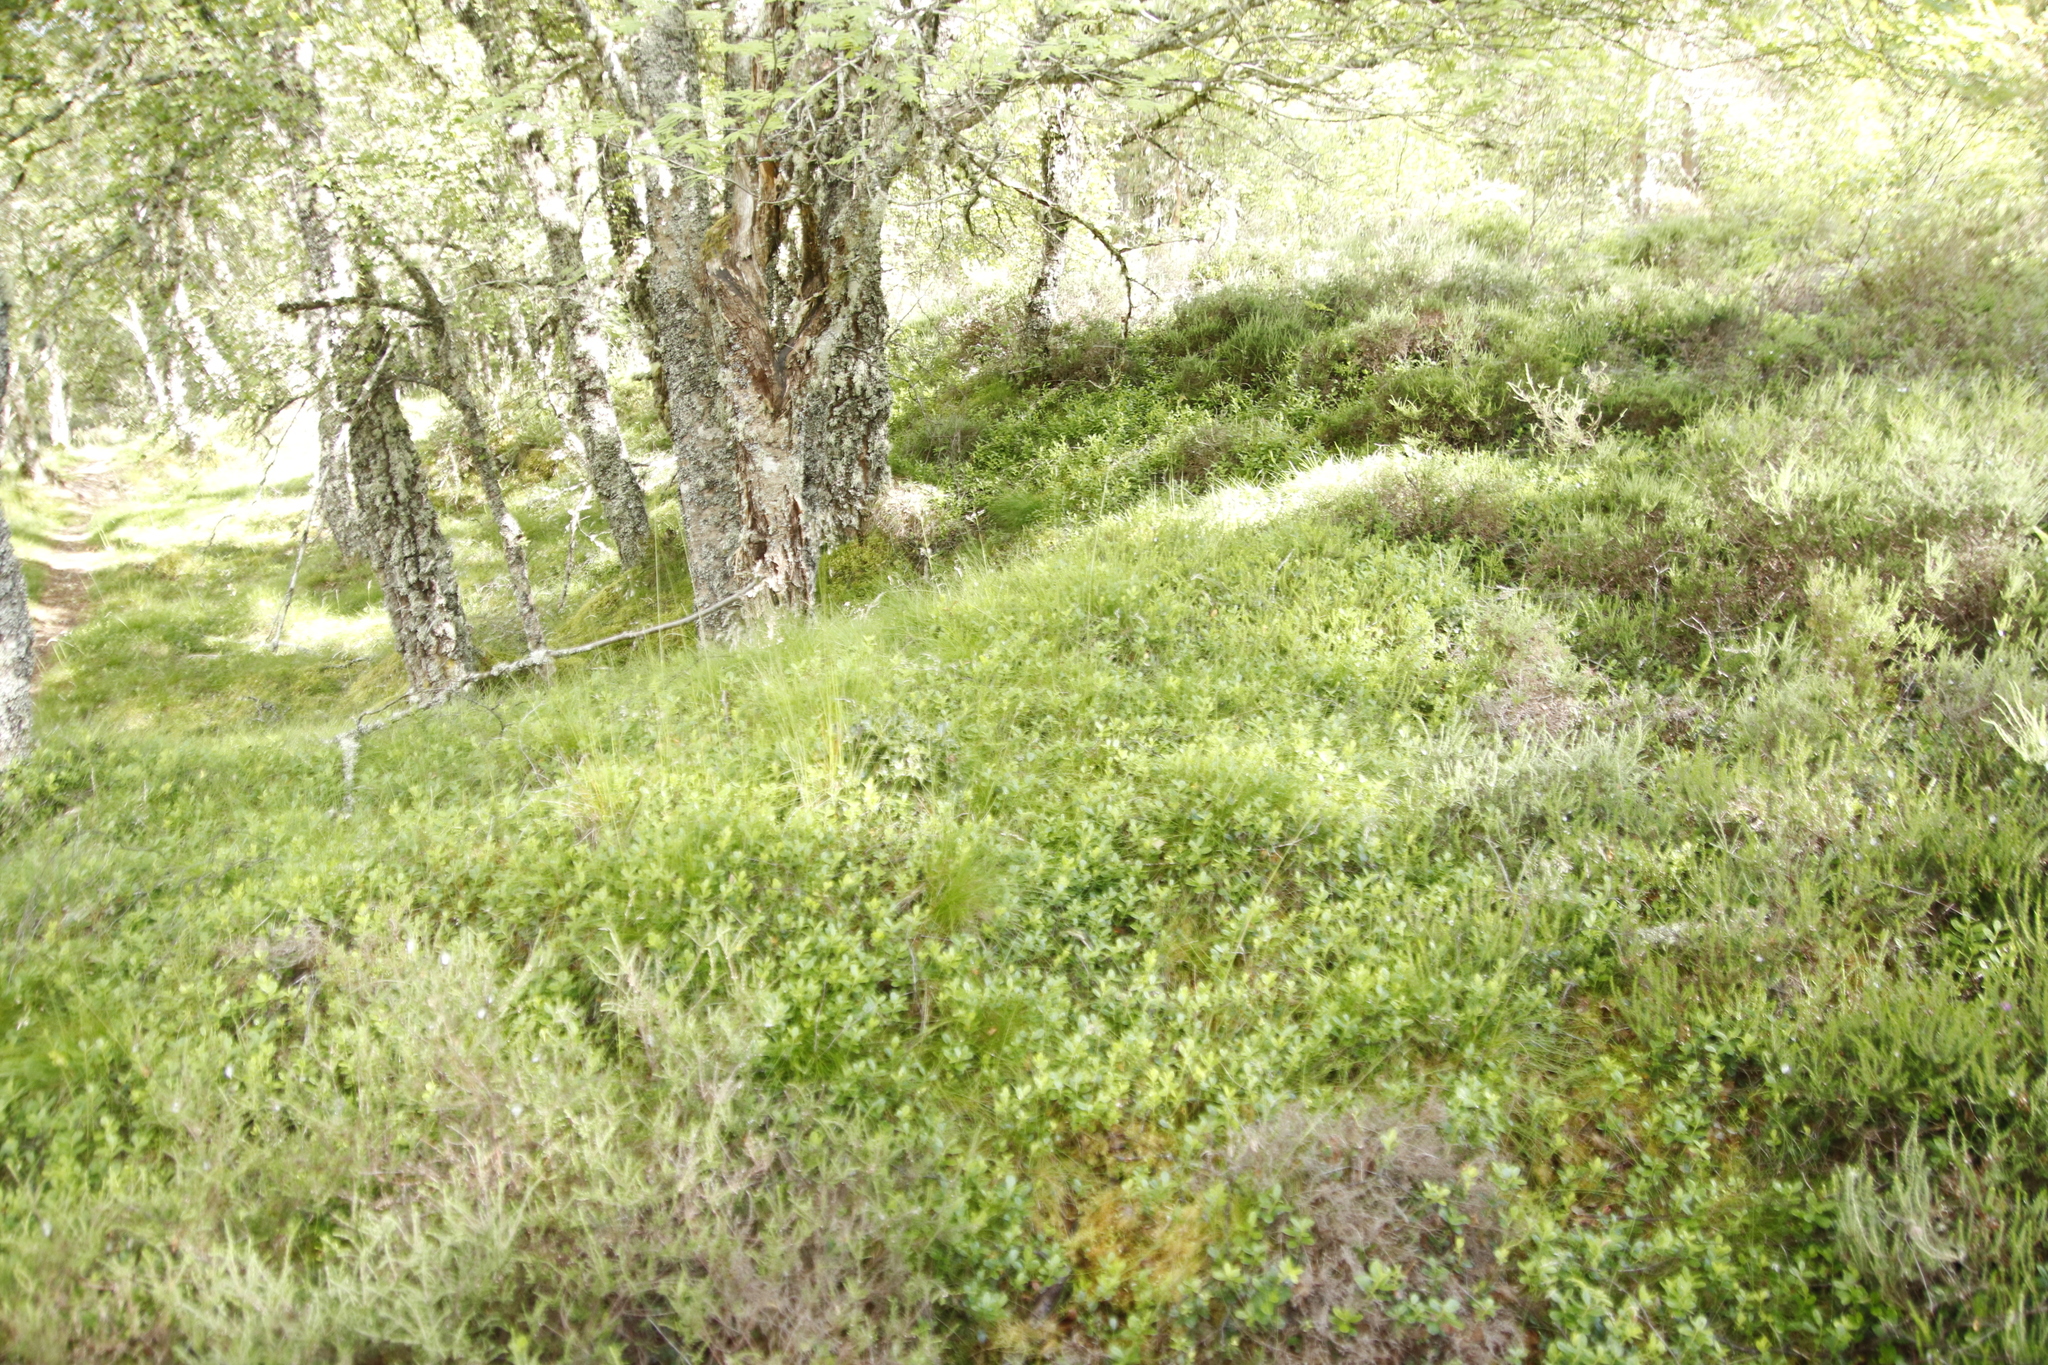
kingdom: Plantae
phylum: Tracheophyta
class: Magnoliopsida
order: Ericales
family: Ericaceae
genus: Vaccinium
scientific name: Vaccinium myrtillus
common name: Bilberry
